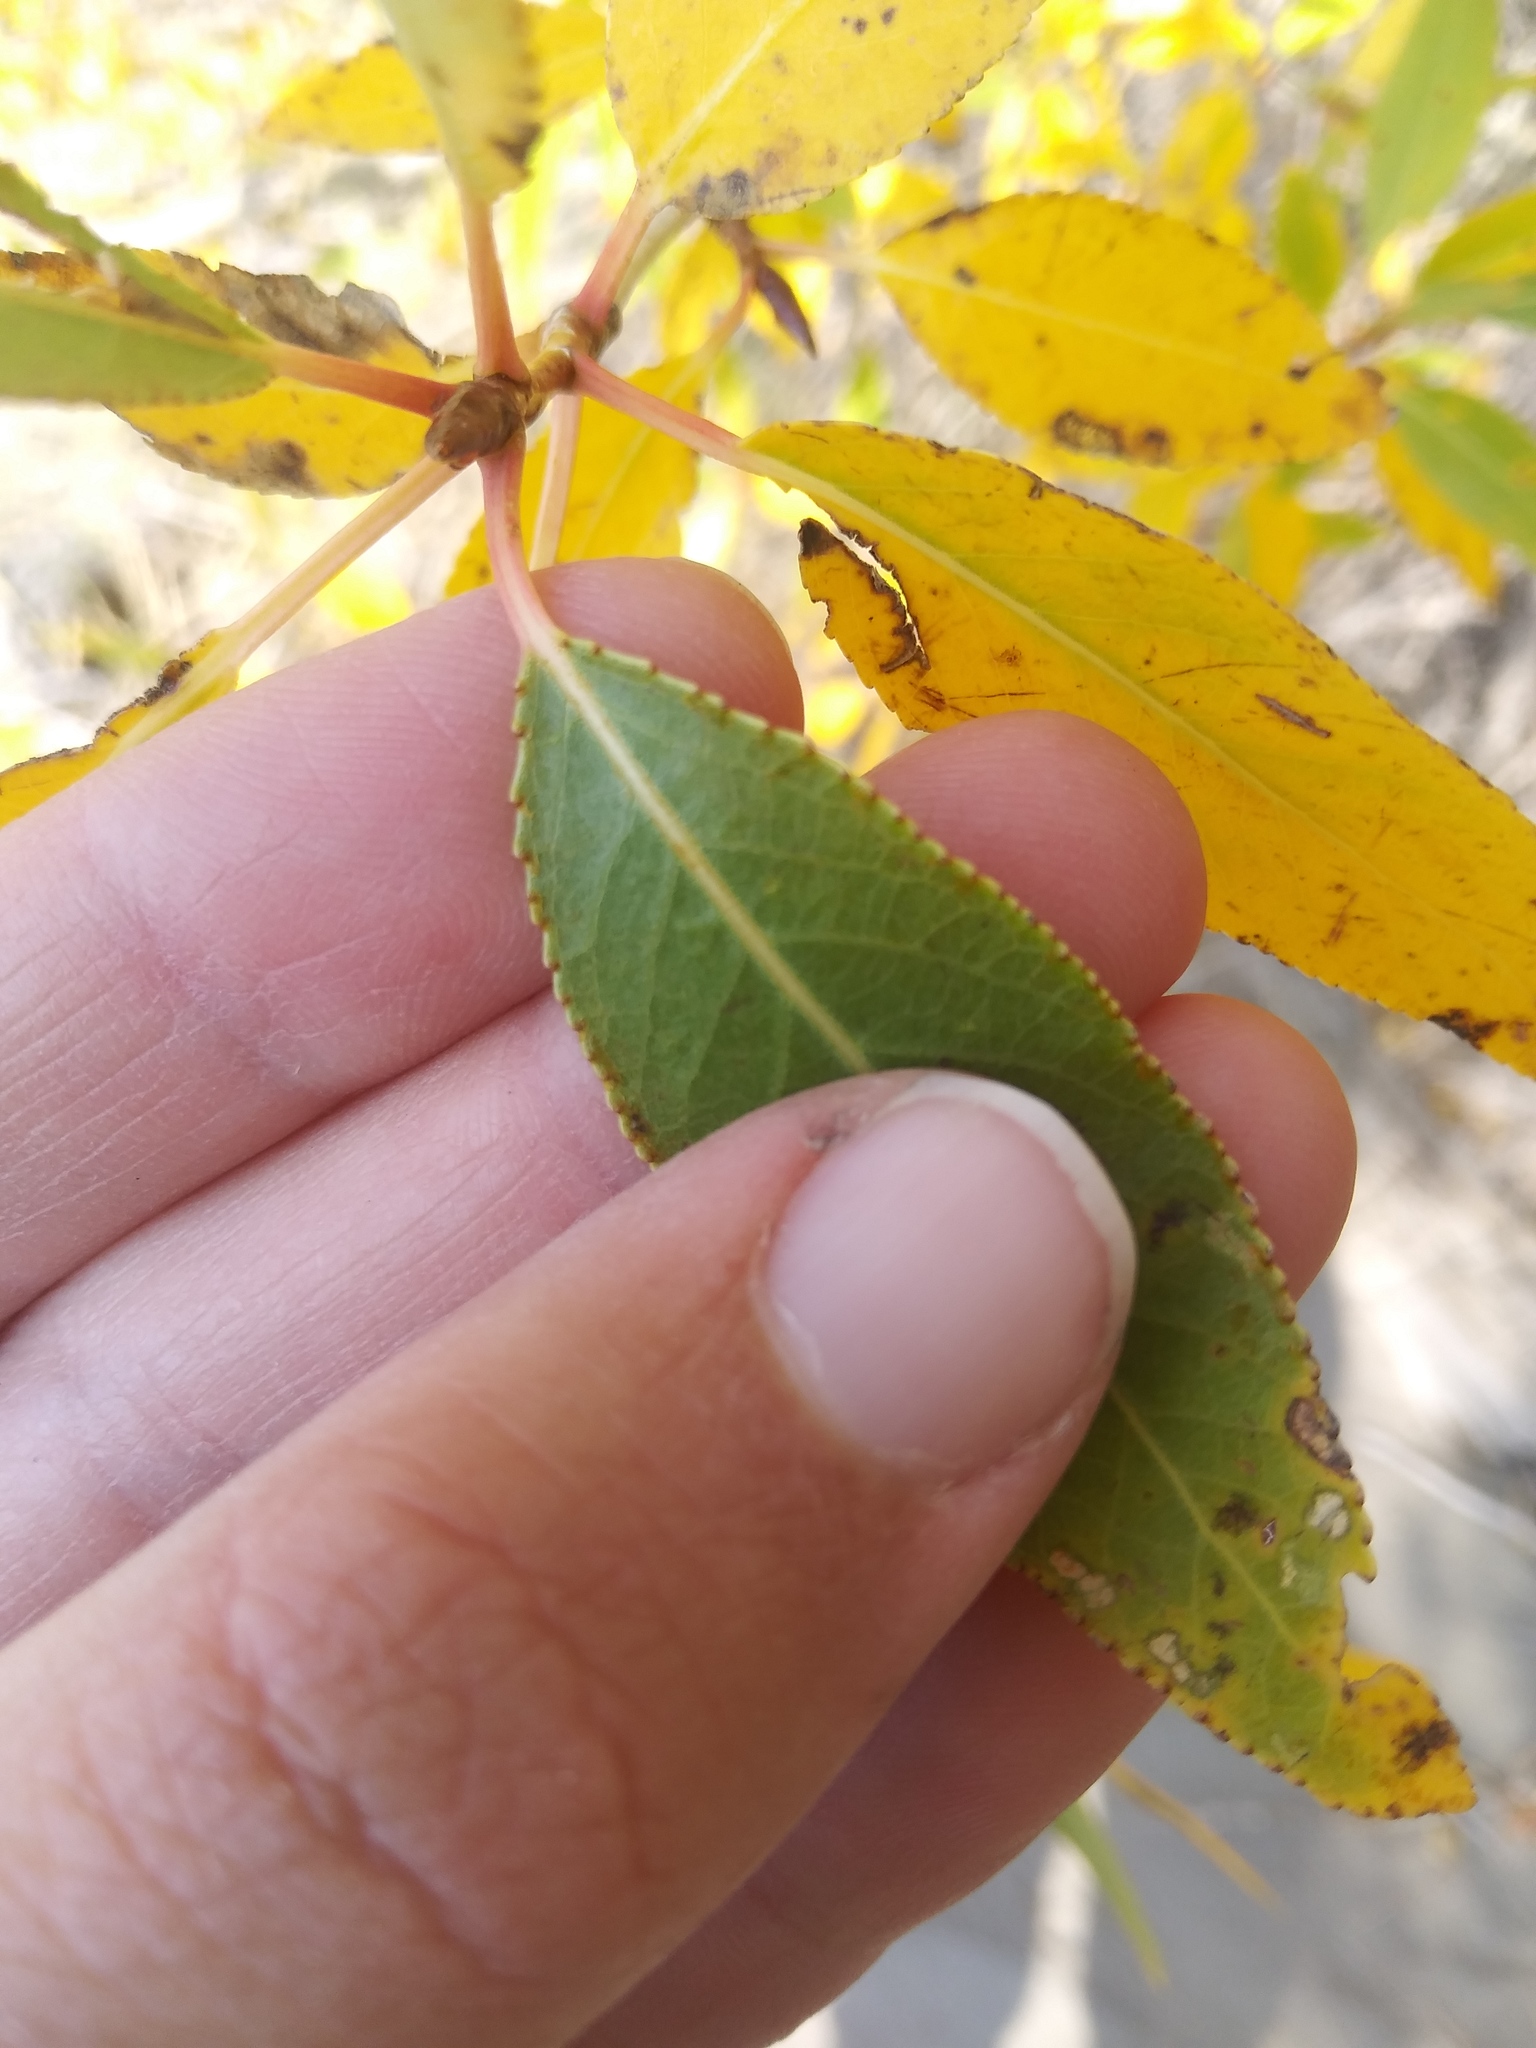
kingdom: Plantae
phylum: Tracheophyta
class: Magnoliopsida
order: Malpighiales
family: Salicaceae
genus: Populus
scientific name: Populus angustifolia
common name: Willow cottonwood
